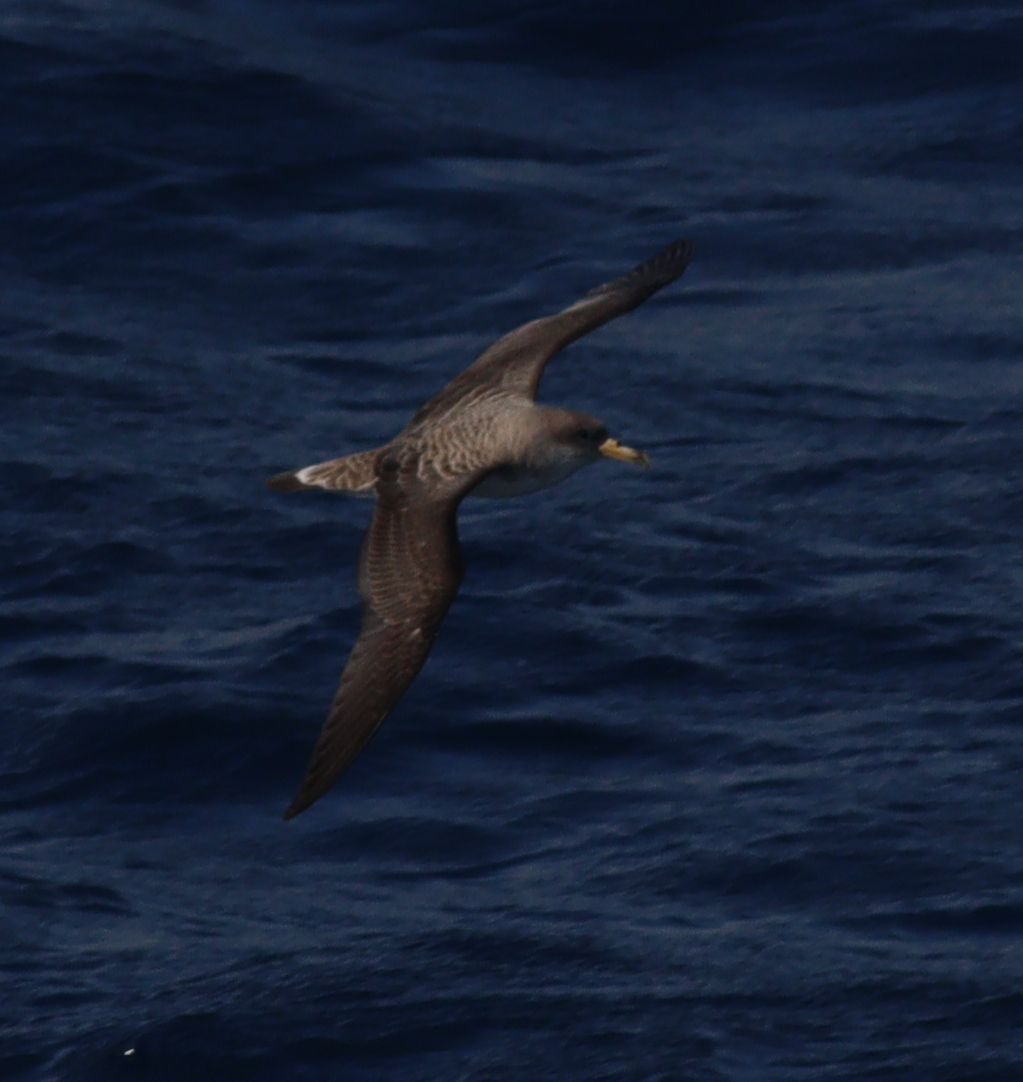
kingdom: Animalia
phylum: Chordata
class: Aves
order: Procellariiformes
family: Procellariidae
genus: Calonectris
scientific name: Calonectris diomedea
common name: Cory's shearwater
